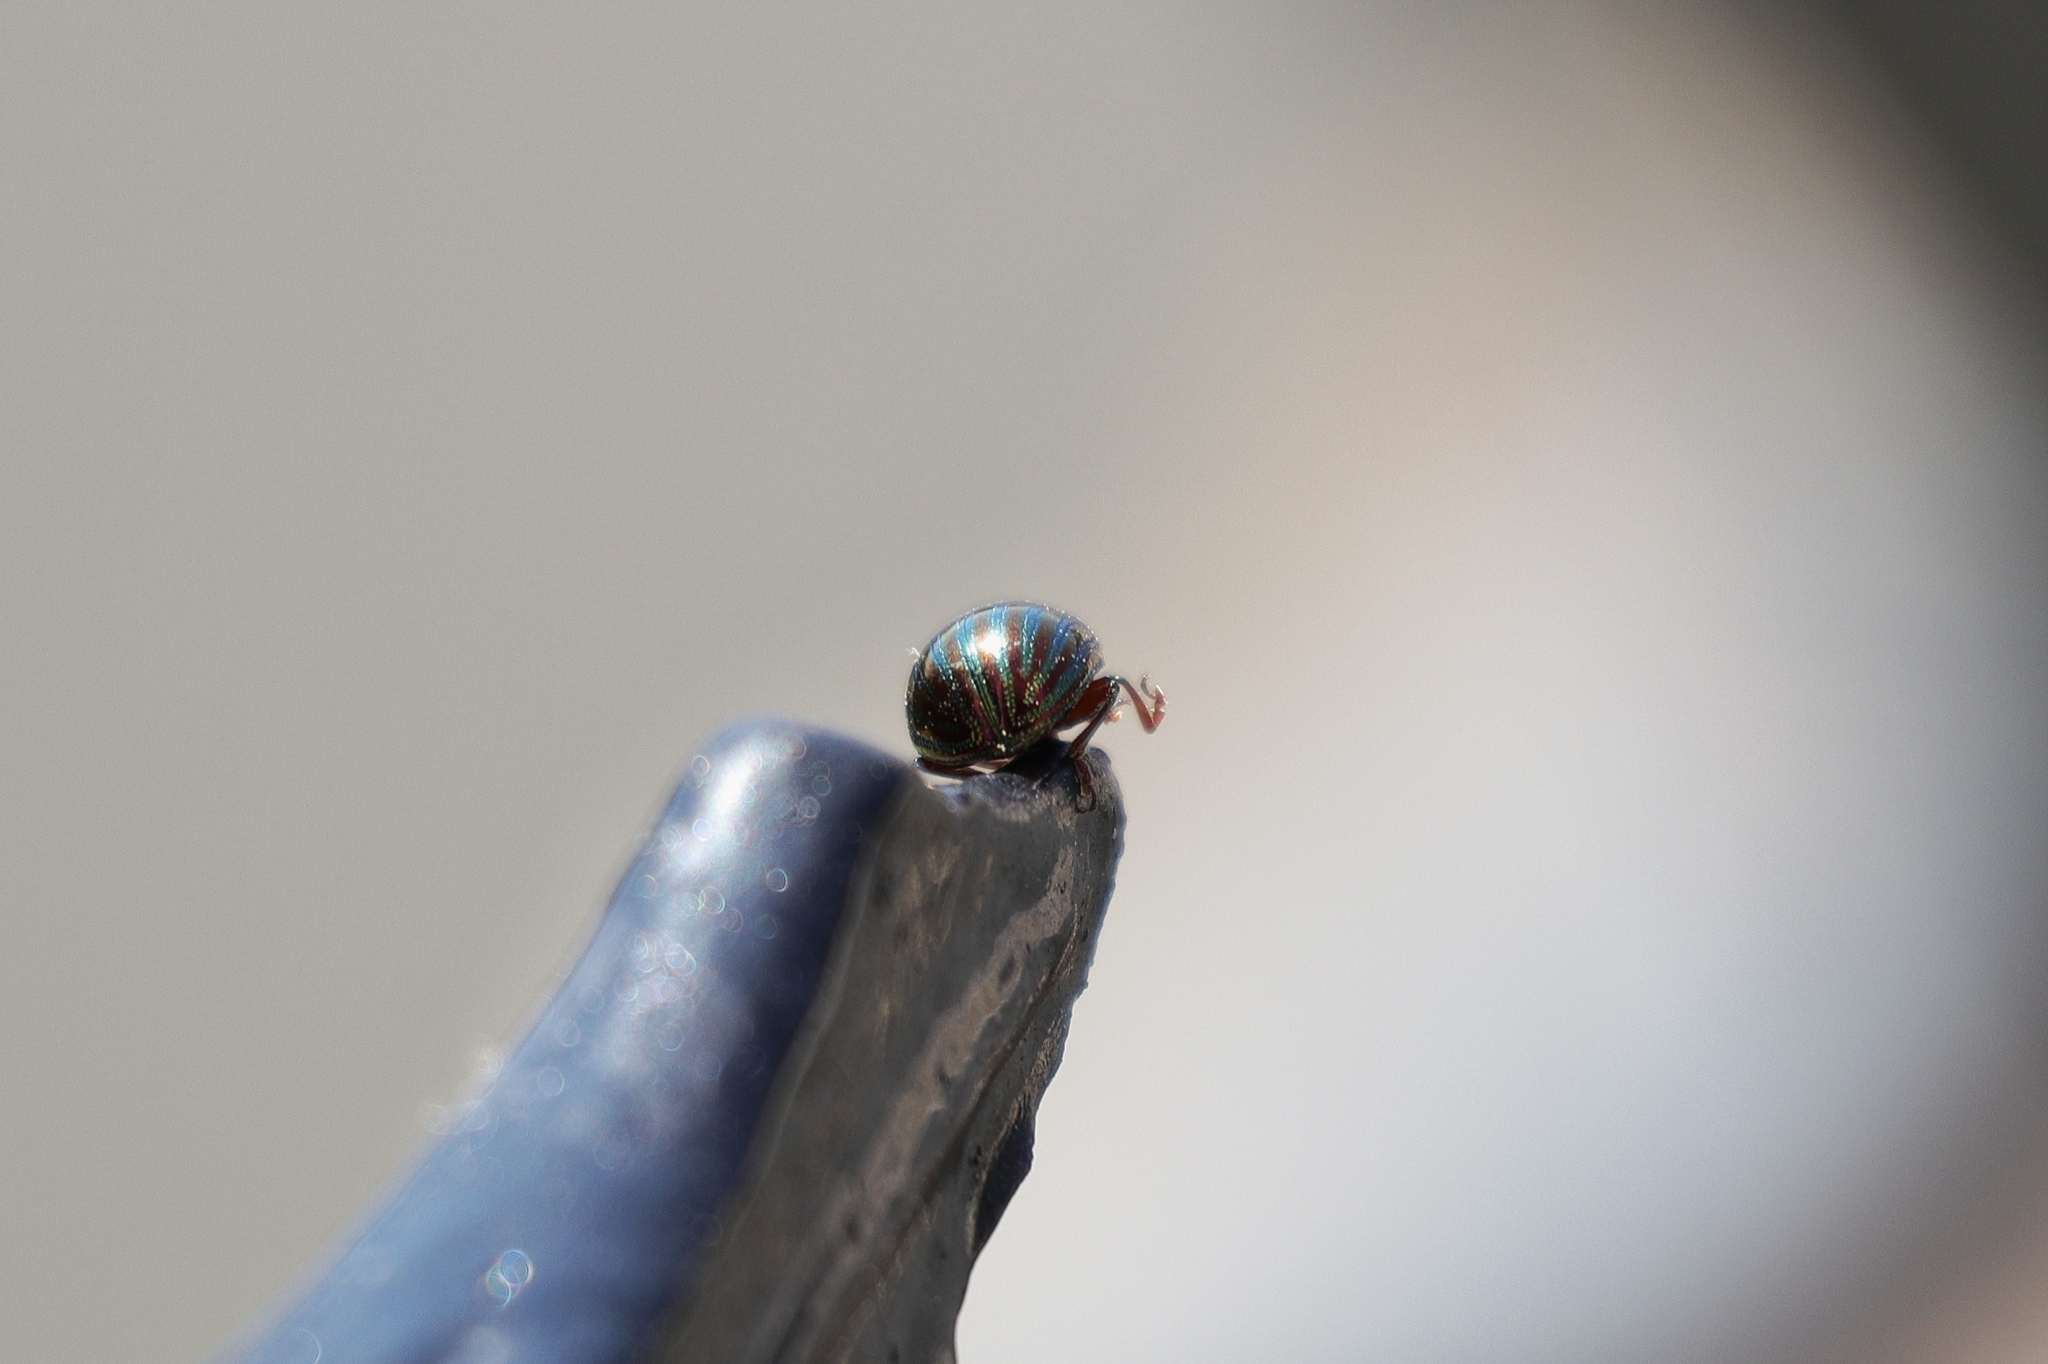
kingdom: Animalia
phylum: Arthropoda
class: Insecta
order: Coleoptera
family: Chrysomelidae
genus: Chrysolina
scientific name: Chrysolina americana
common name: Rosemary beetle
